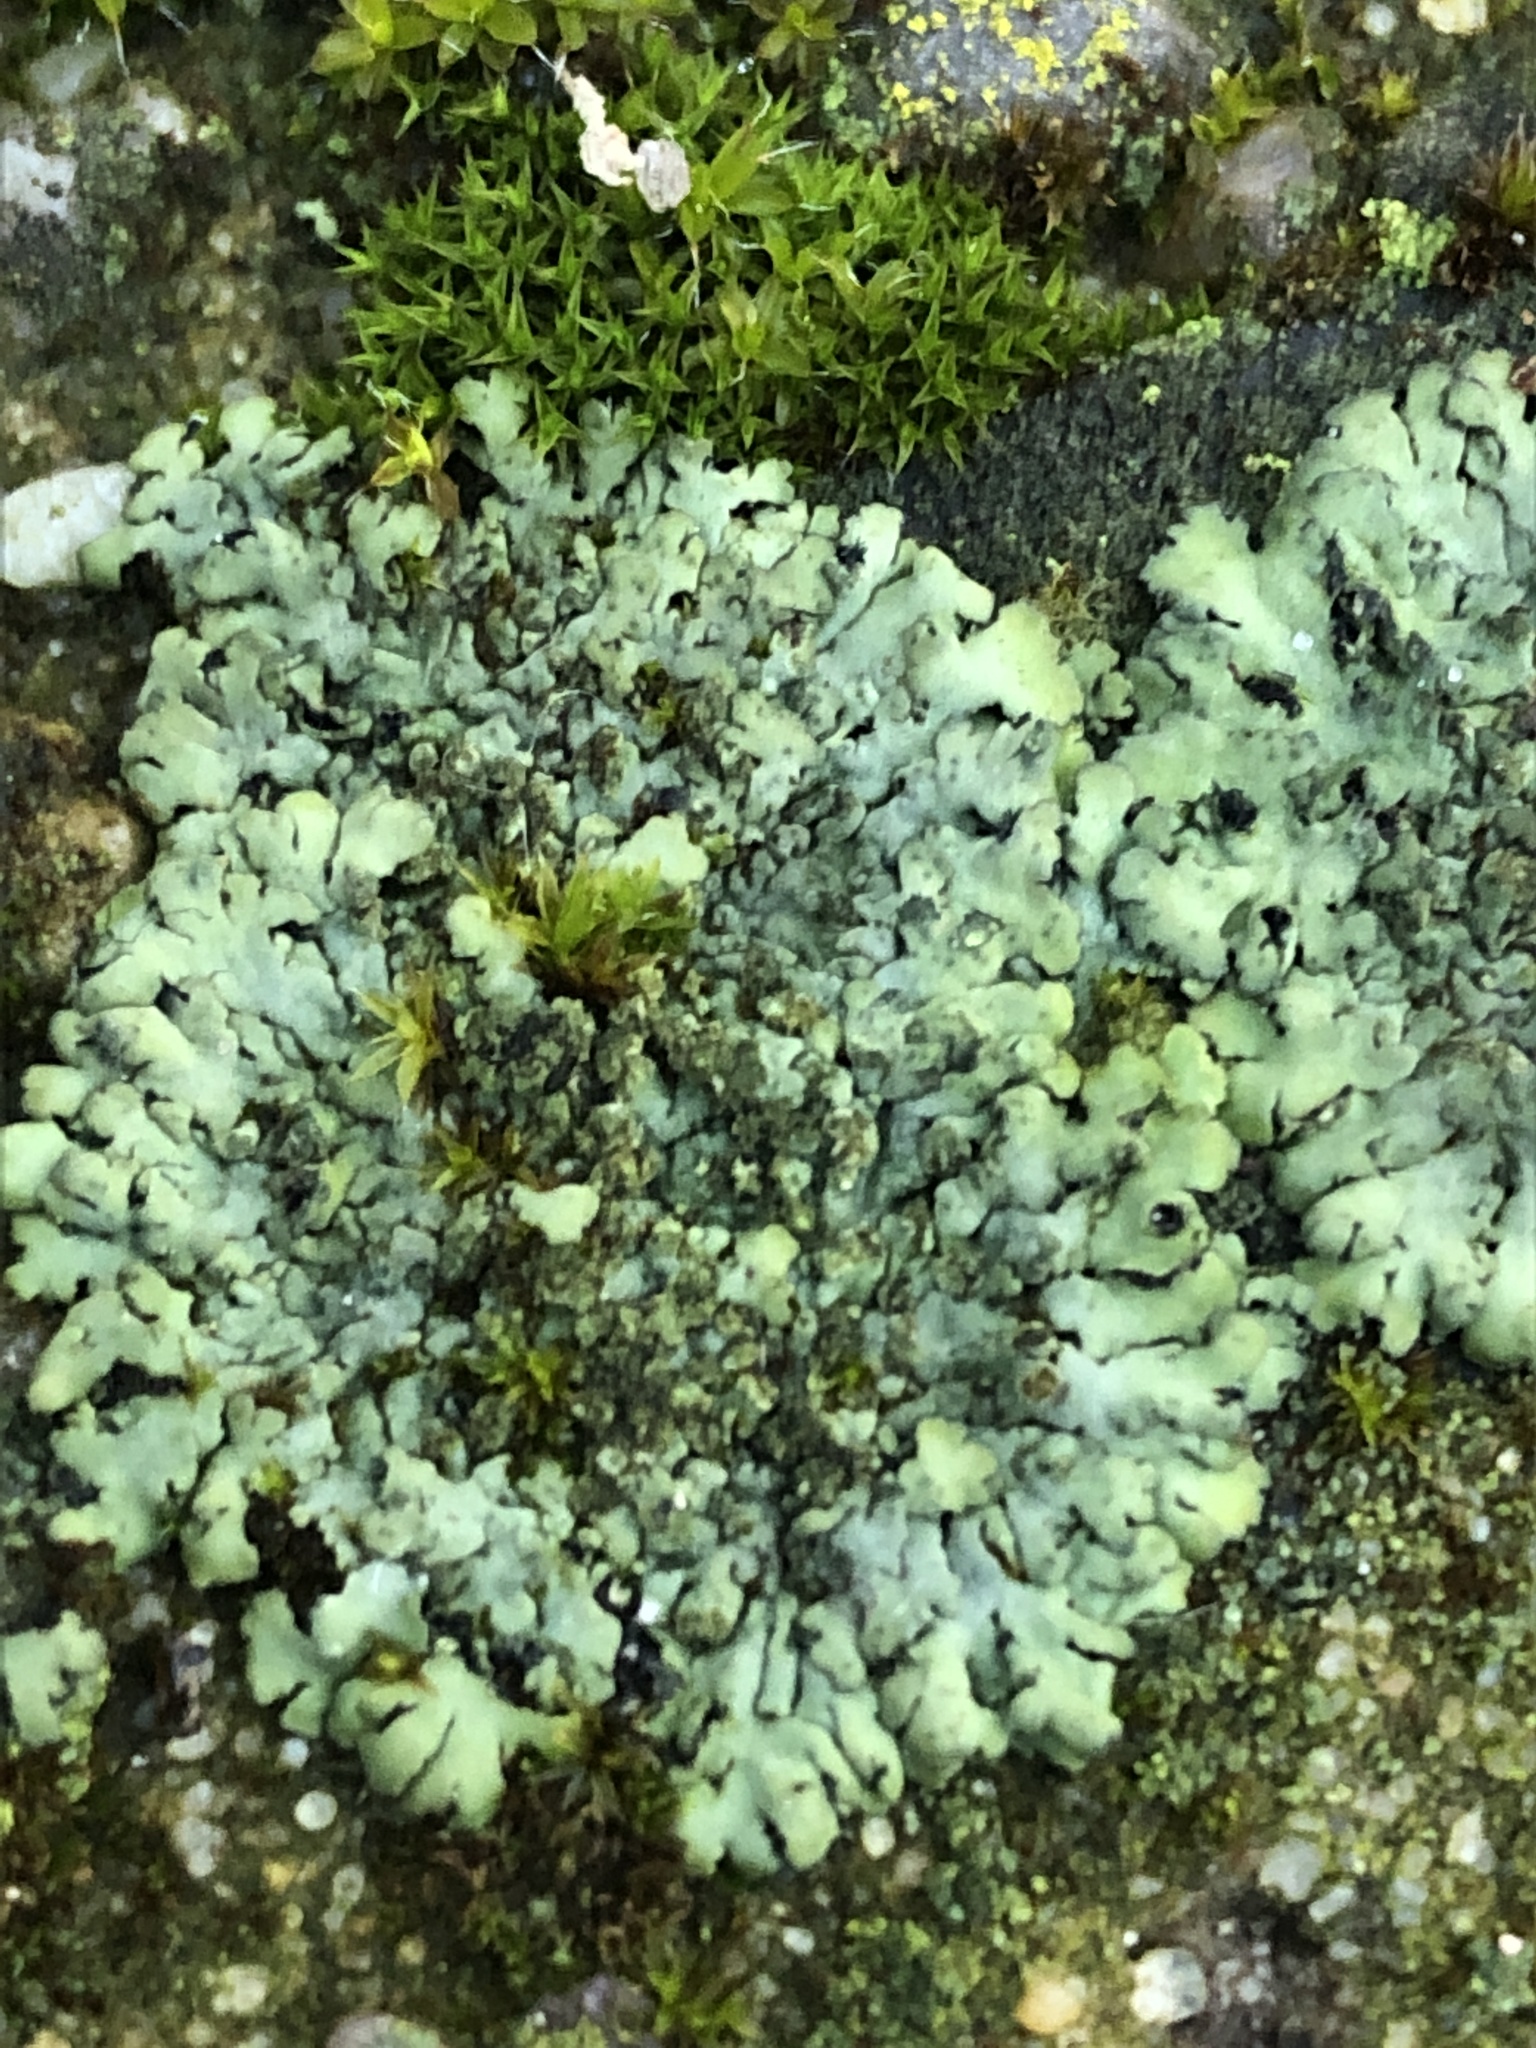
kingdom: Fungi
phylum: Ascomycota
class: Lecanoromycetes
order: Caliciales
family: Physciaceae
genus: Phaeophyscia
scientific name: Phaeophyscia orbicularis
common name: Mealy shadow lichen
